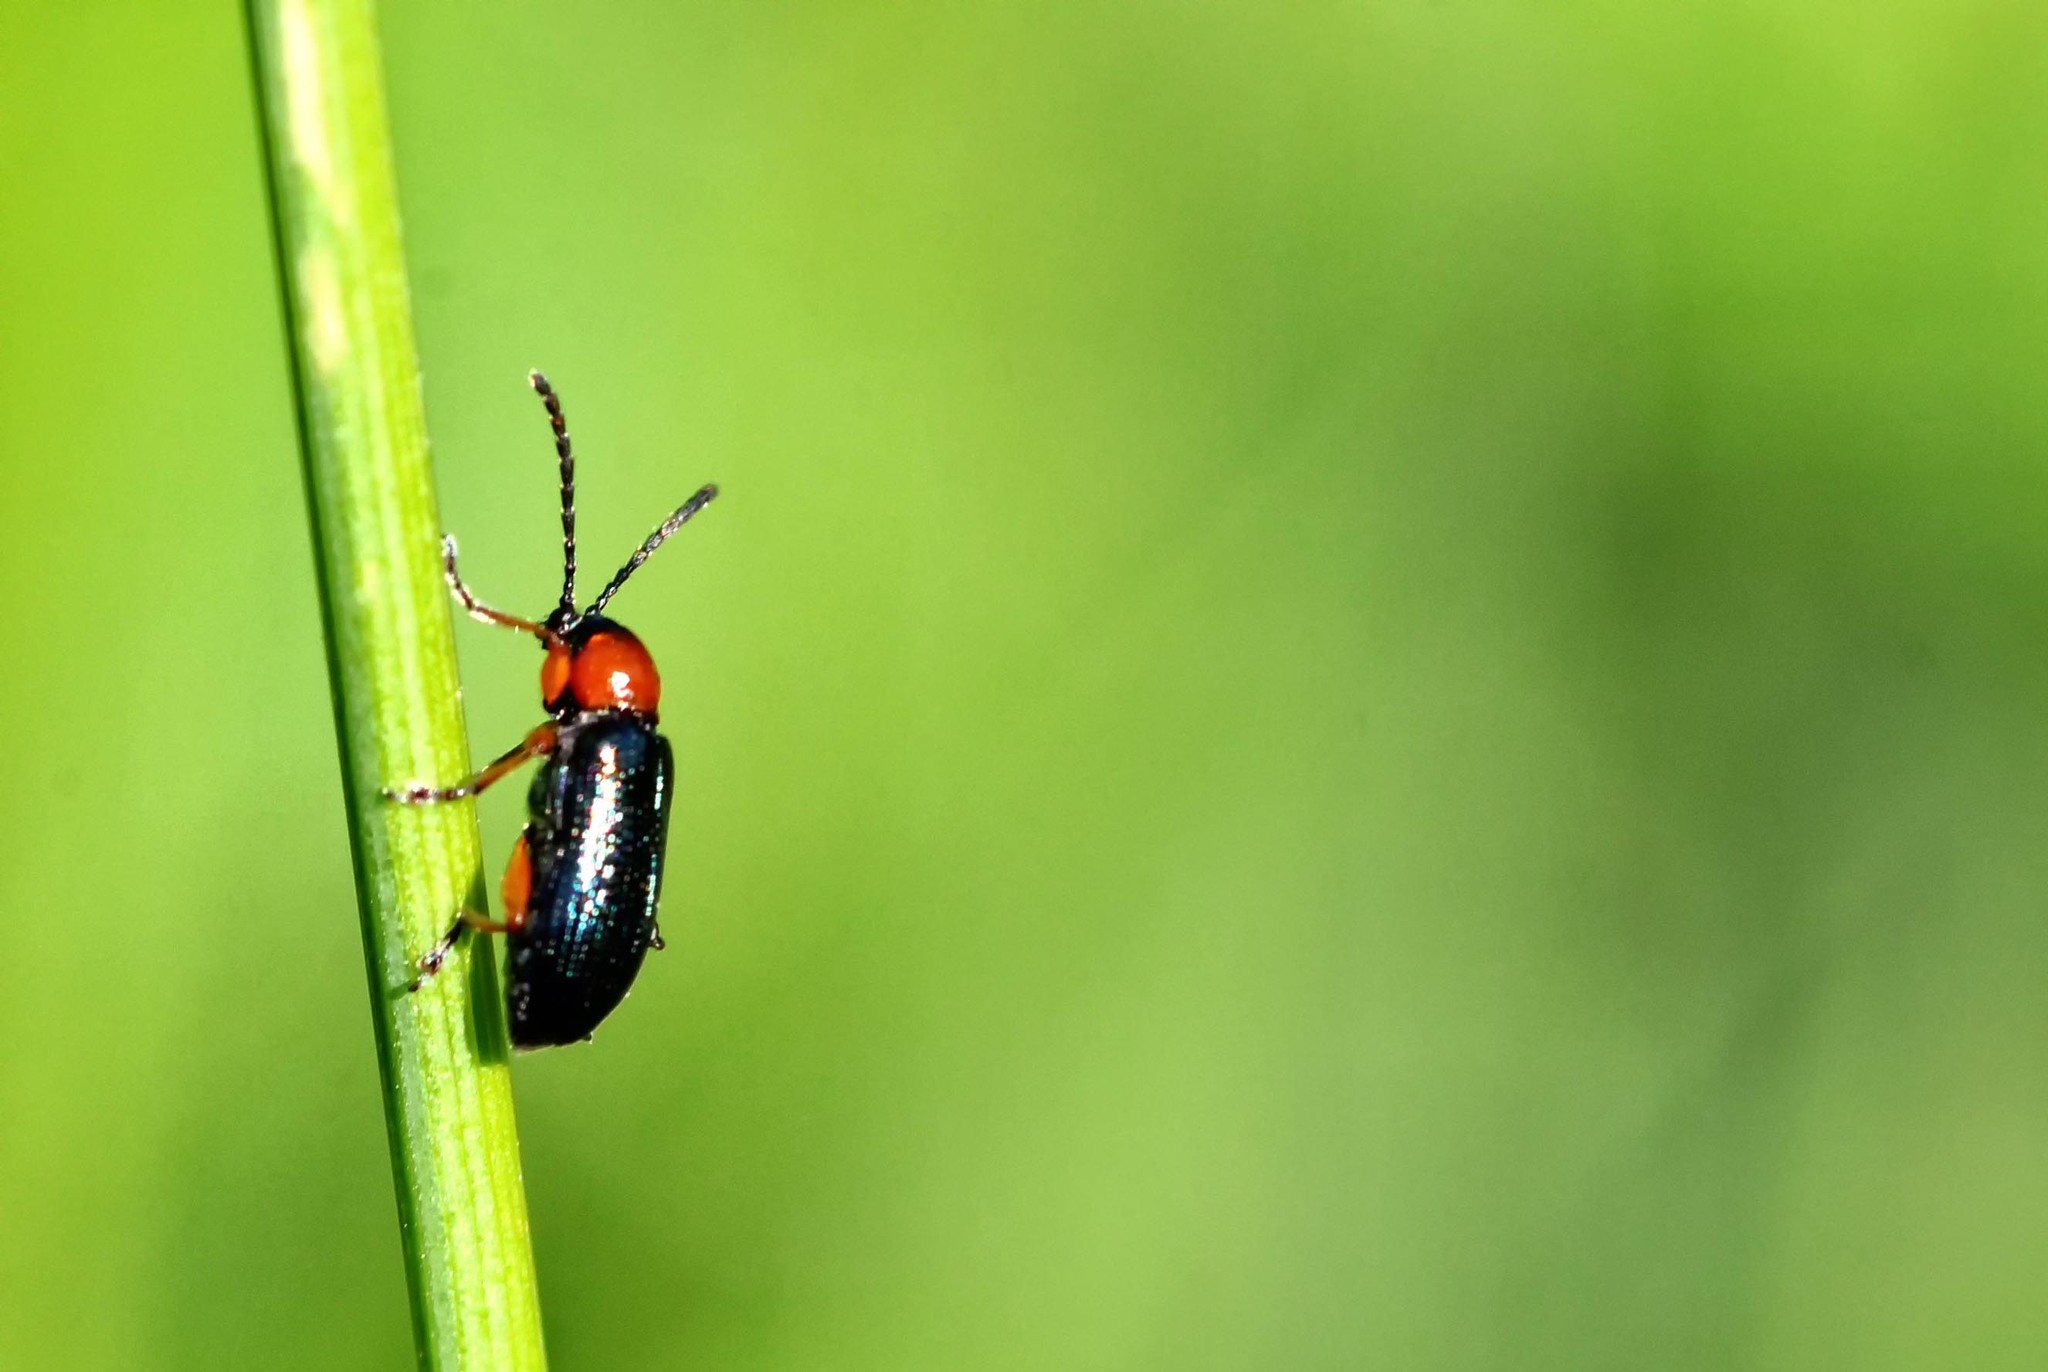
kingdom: Animalia
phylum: Arthropoda
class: Insecta
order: Coleoptera
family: Chrysomelidae
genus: Oulema
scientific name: Oulema
